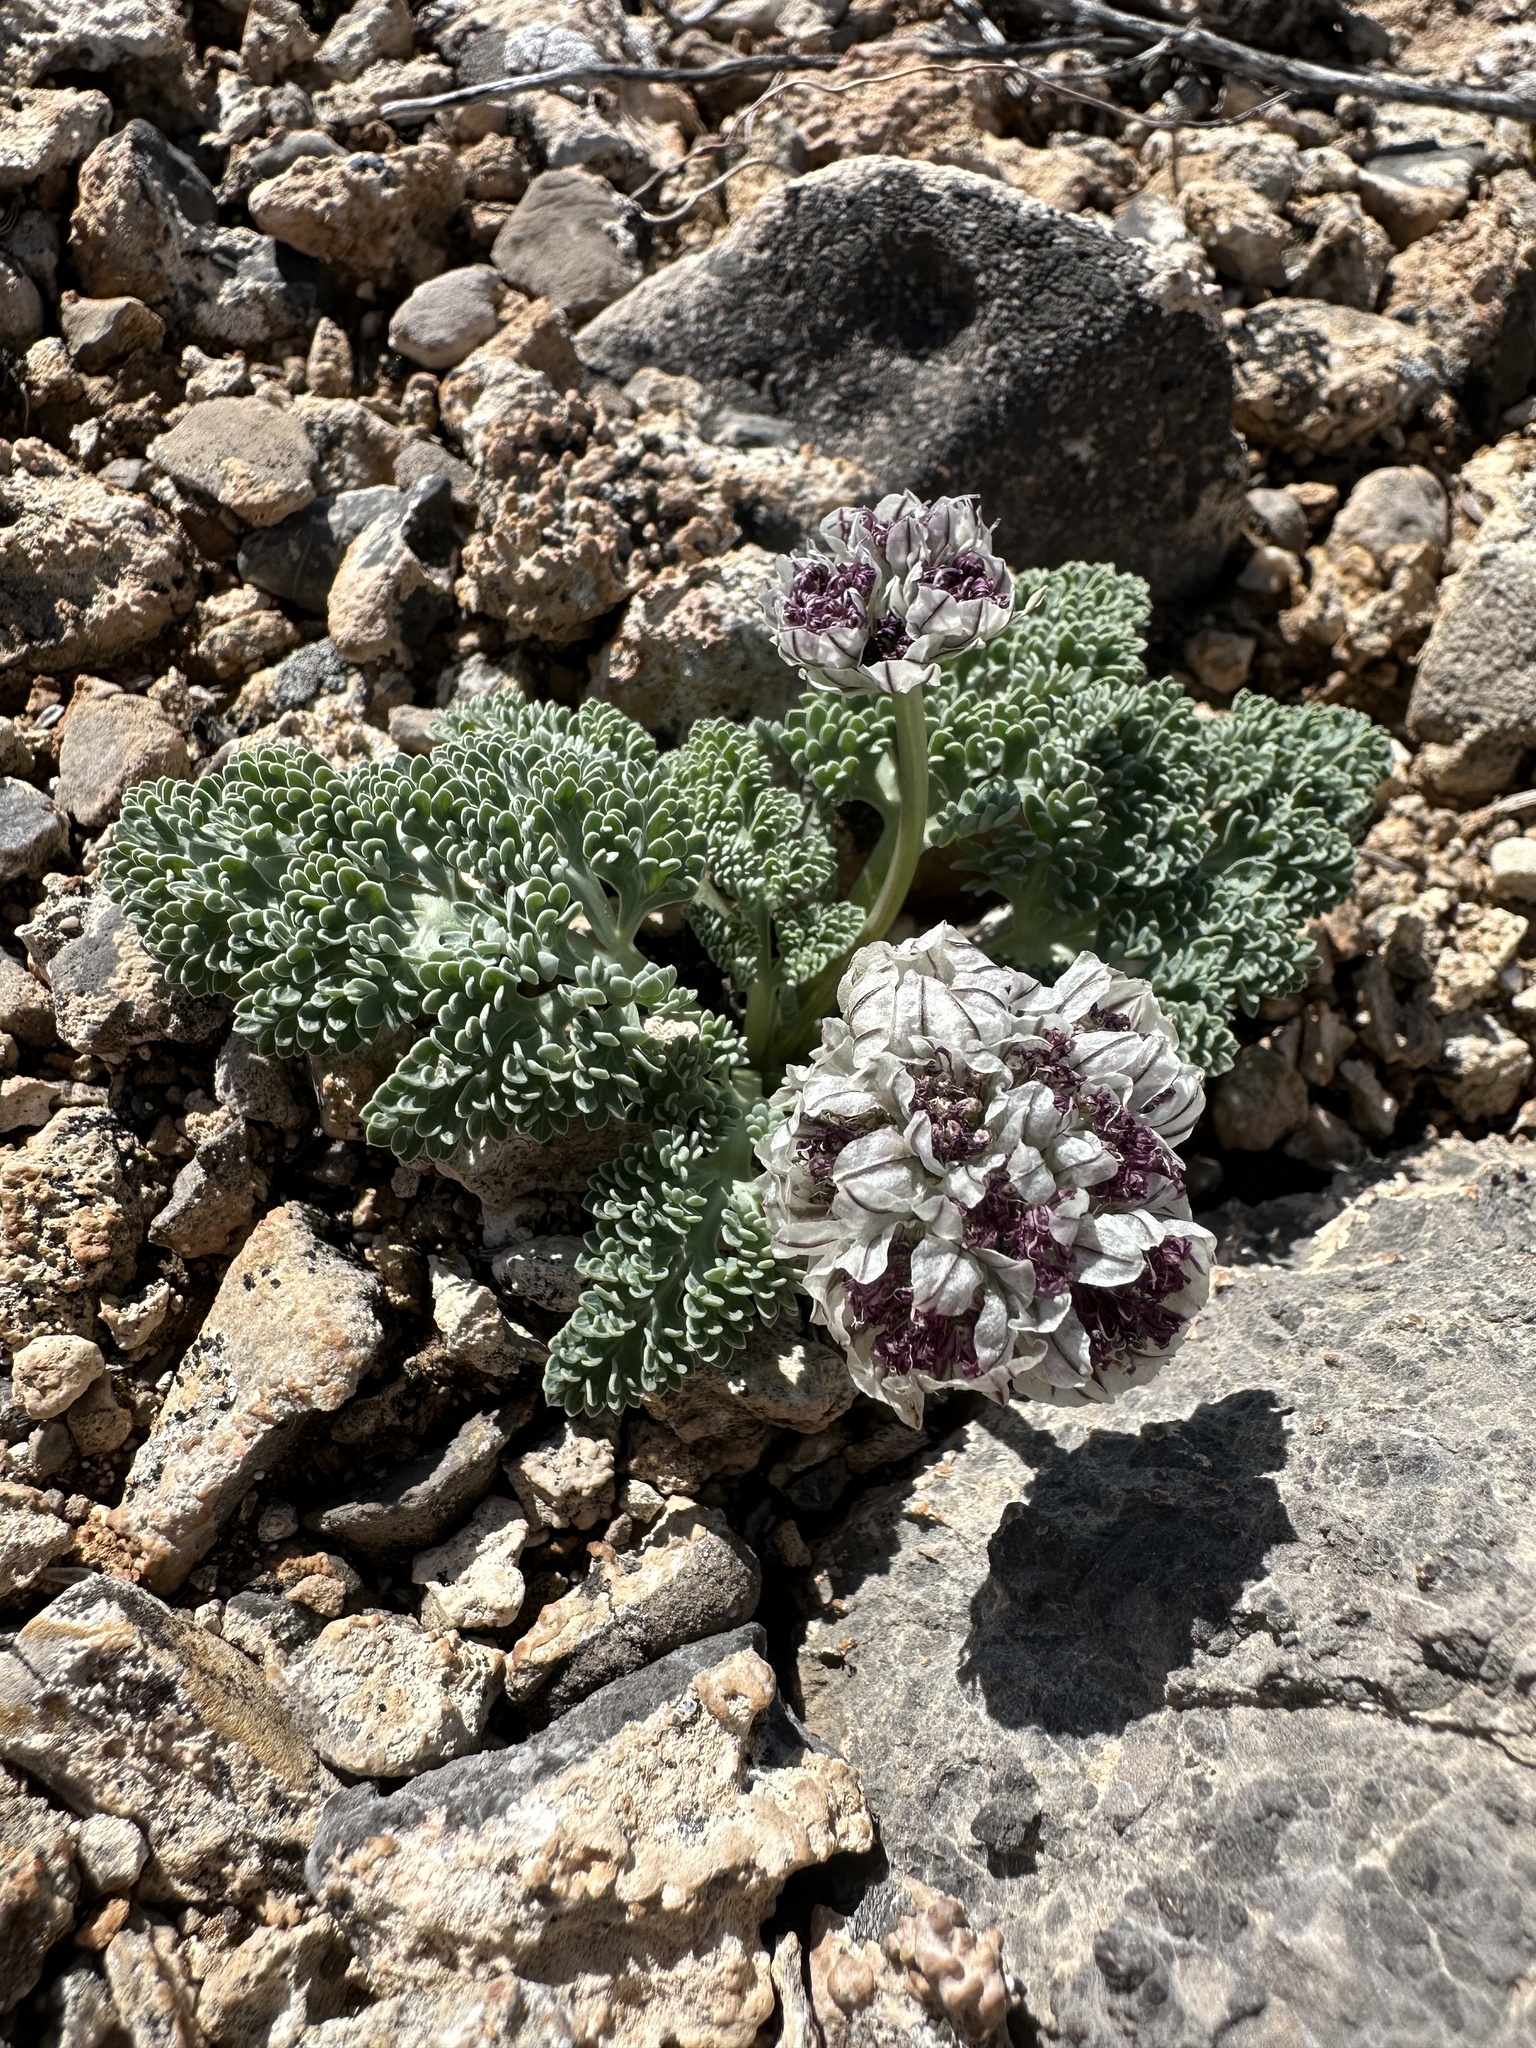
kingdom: Plantae
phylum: Tracheophyta
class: Magnoliopsida
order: Apiales
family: Apiaceae
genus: Vesper
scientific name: Vesper purpurascens
